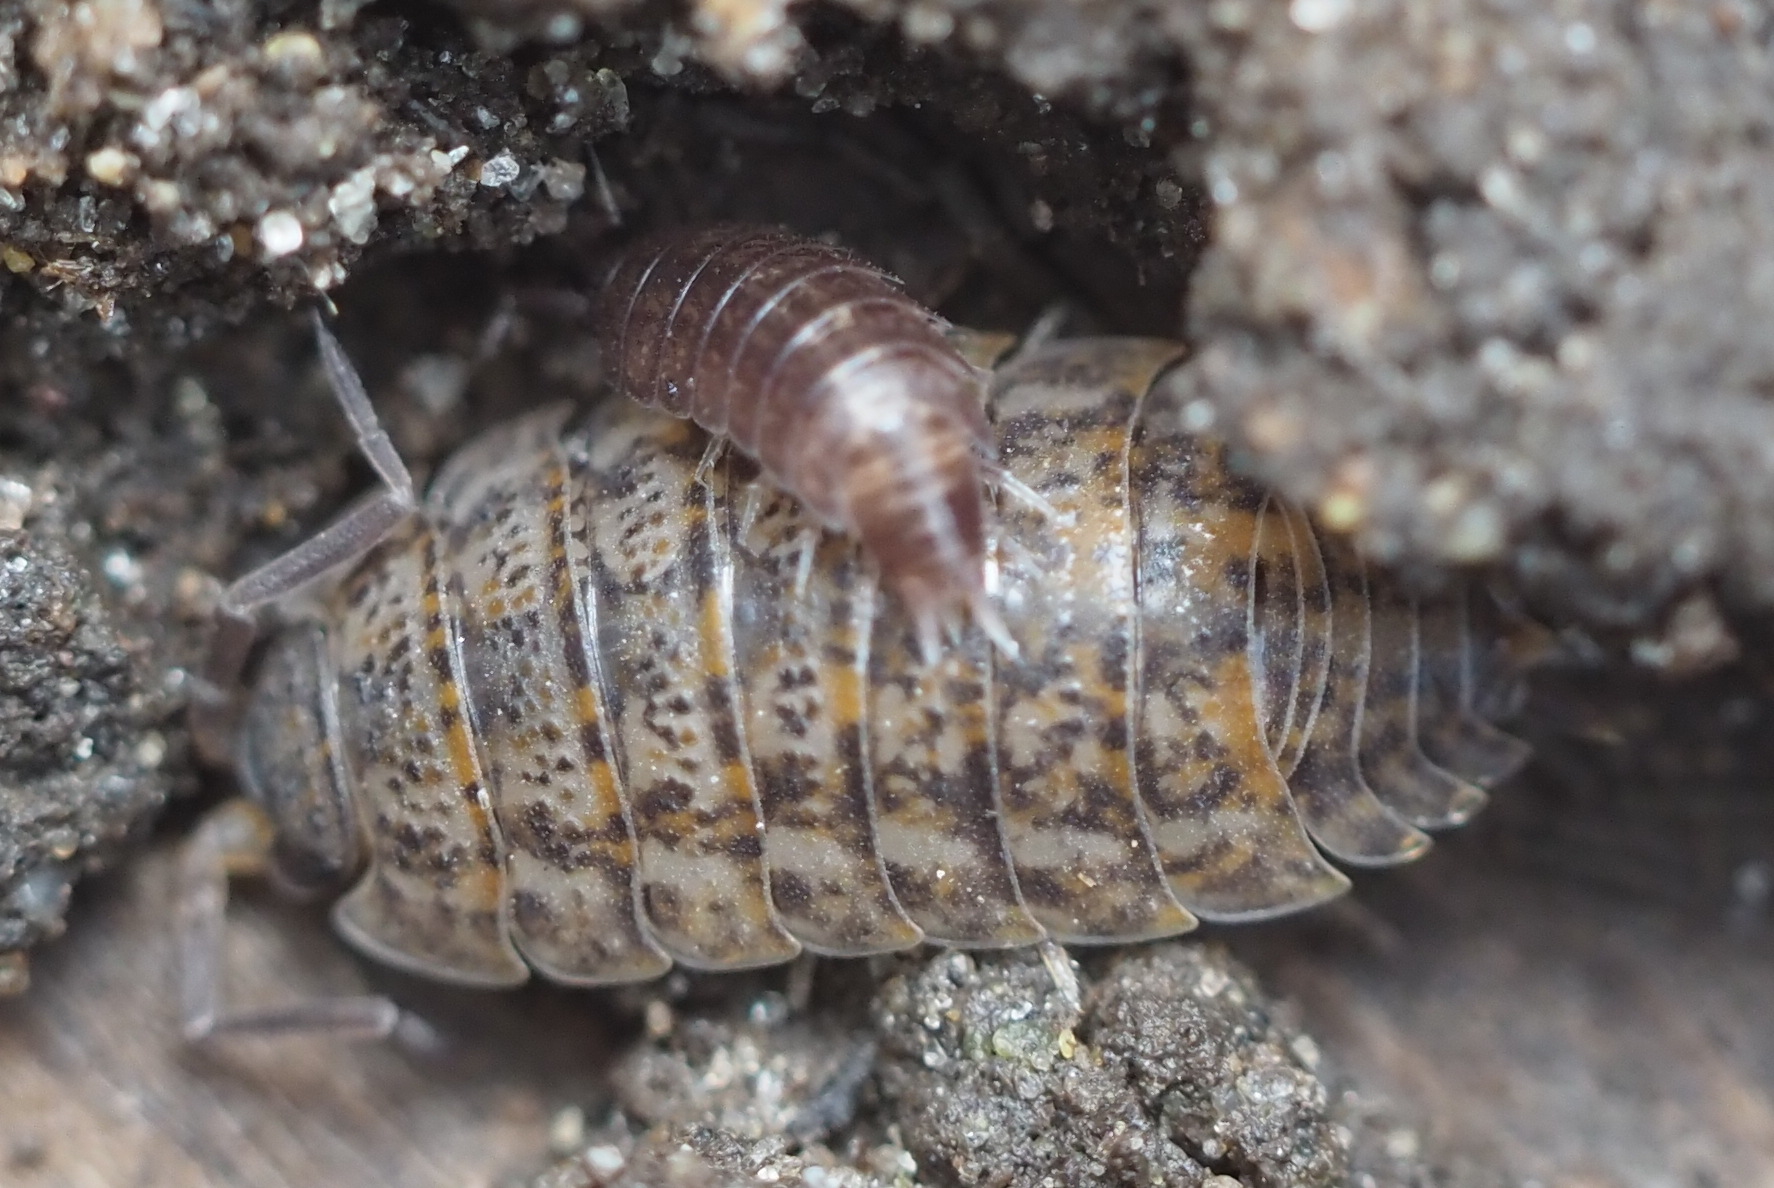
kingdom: Animalia
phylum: Arthropoda
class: Malacostraca
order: Isopoda
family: Trachelipodidae
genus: Trachelipus
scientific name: Trachelipus rathkii
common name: Isopod
